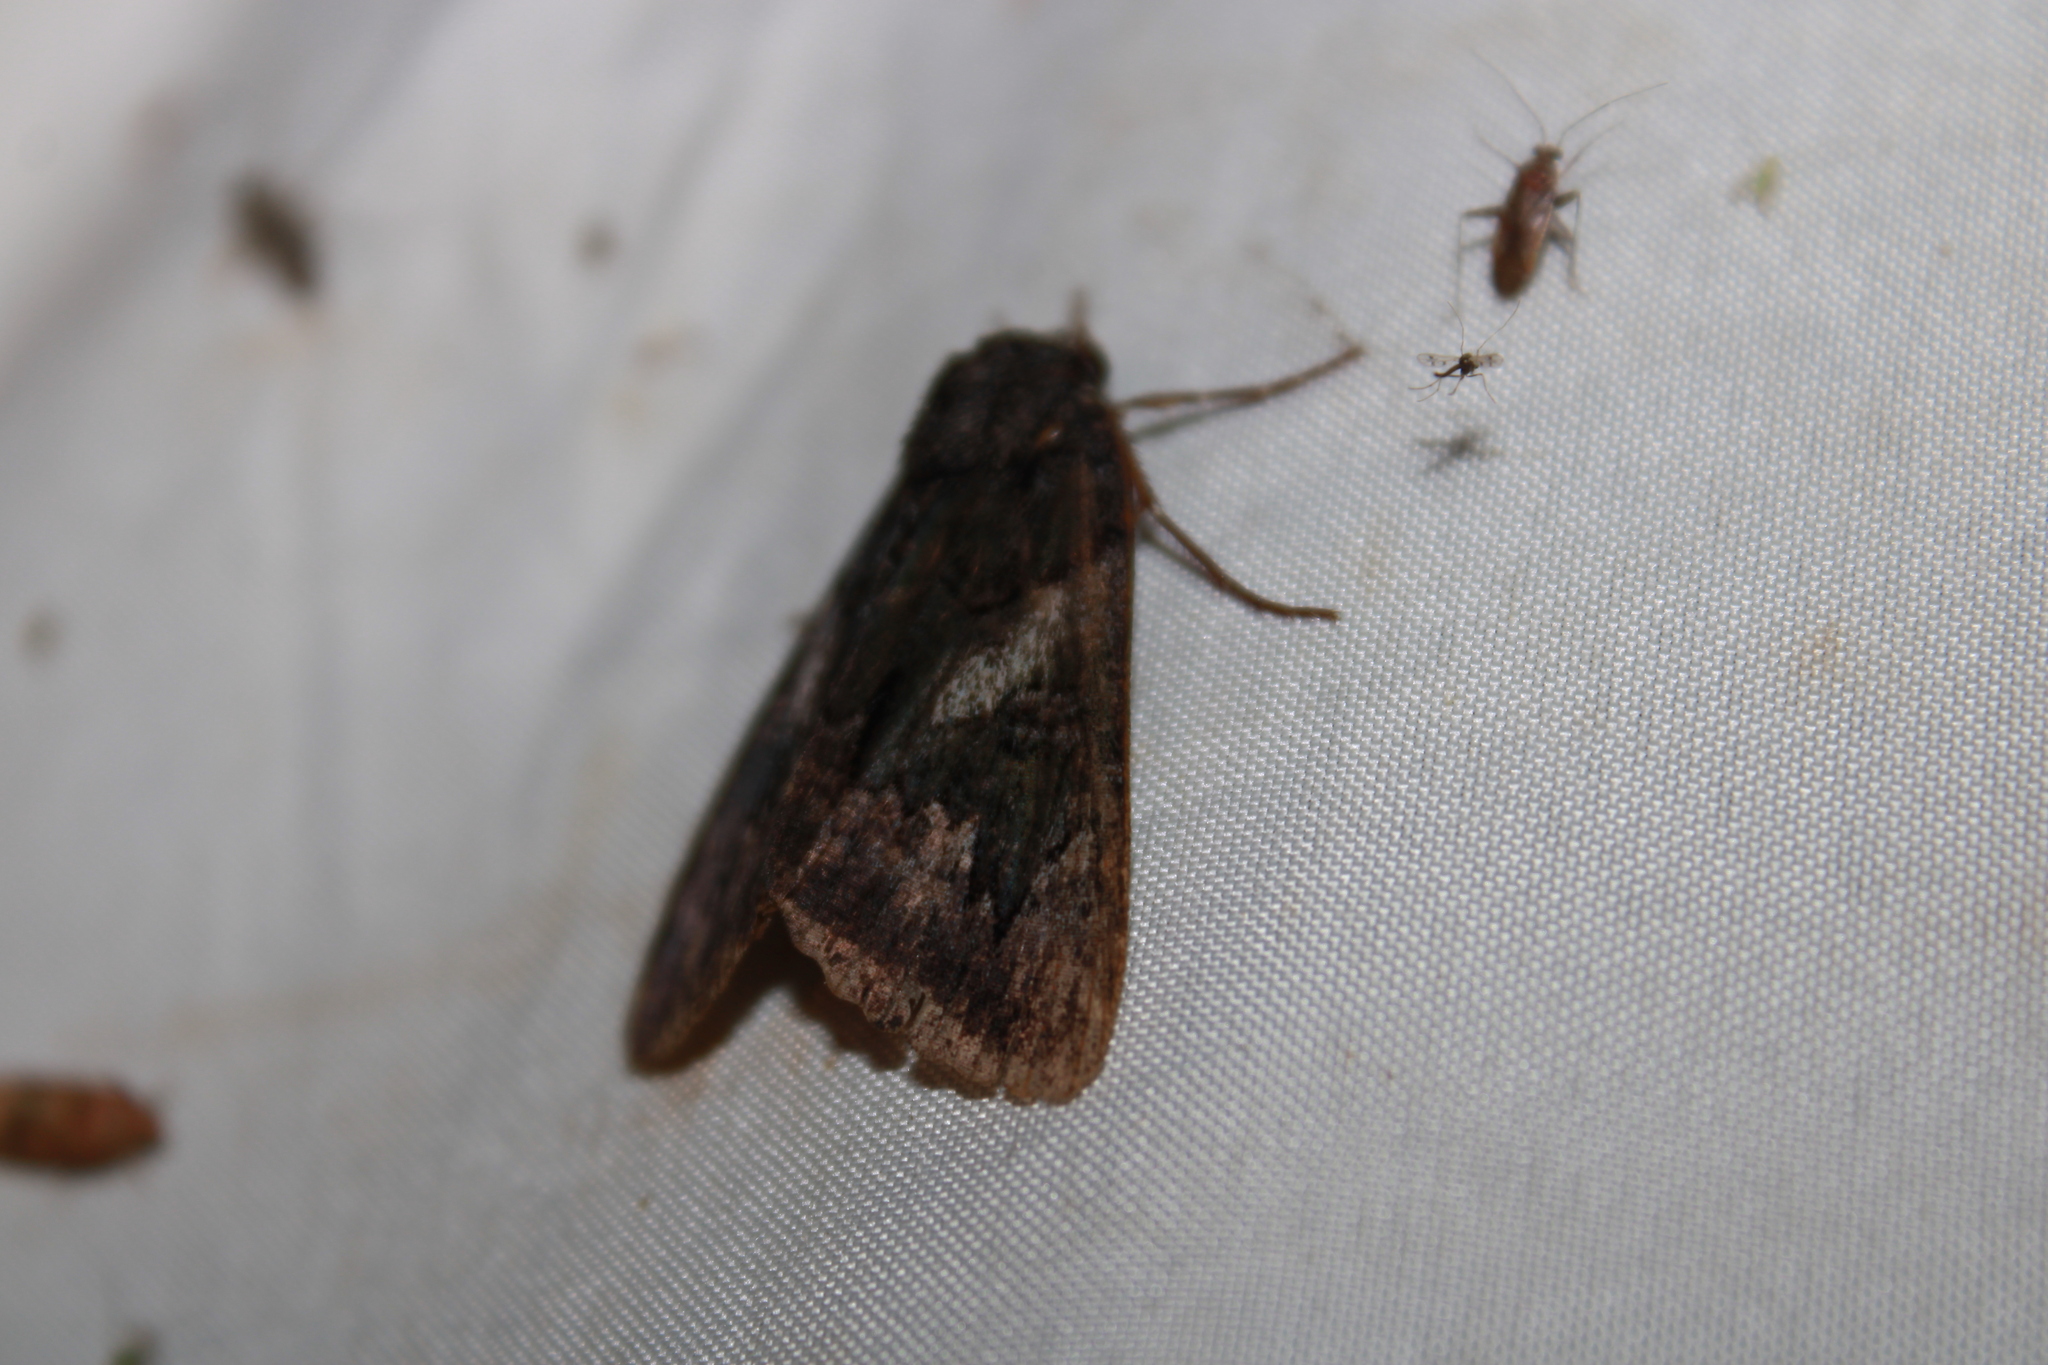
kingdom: Animalia
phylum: Arthropoda
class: Insecta
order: Lepidoptera
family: Erebidae
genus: Catocala
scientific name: Catocala antinympha
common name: Sweetfern underwing
